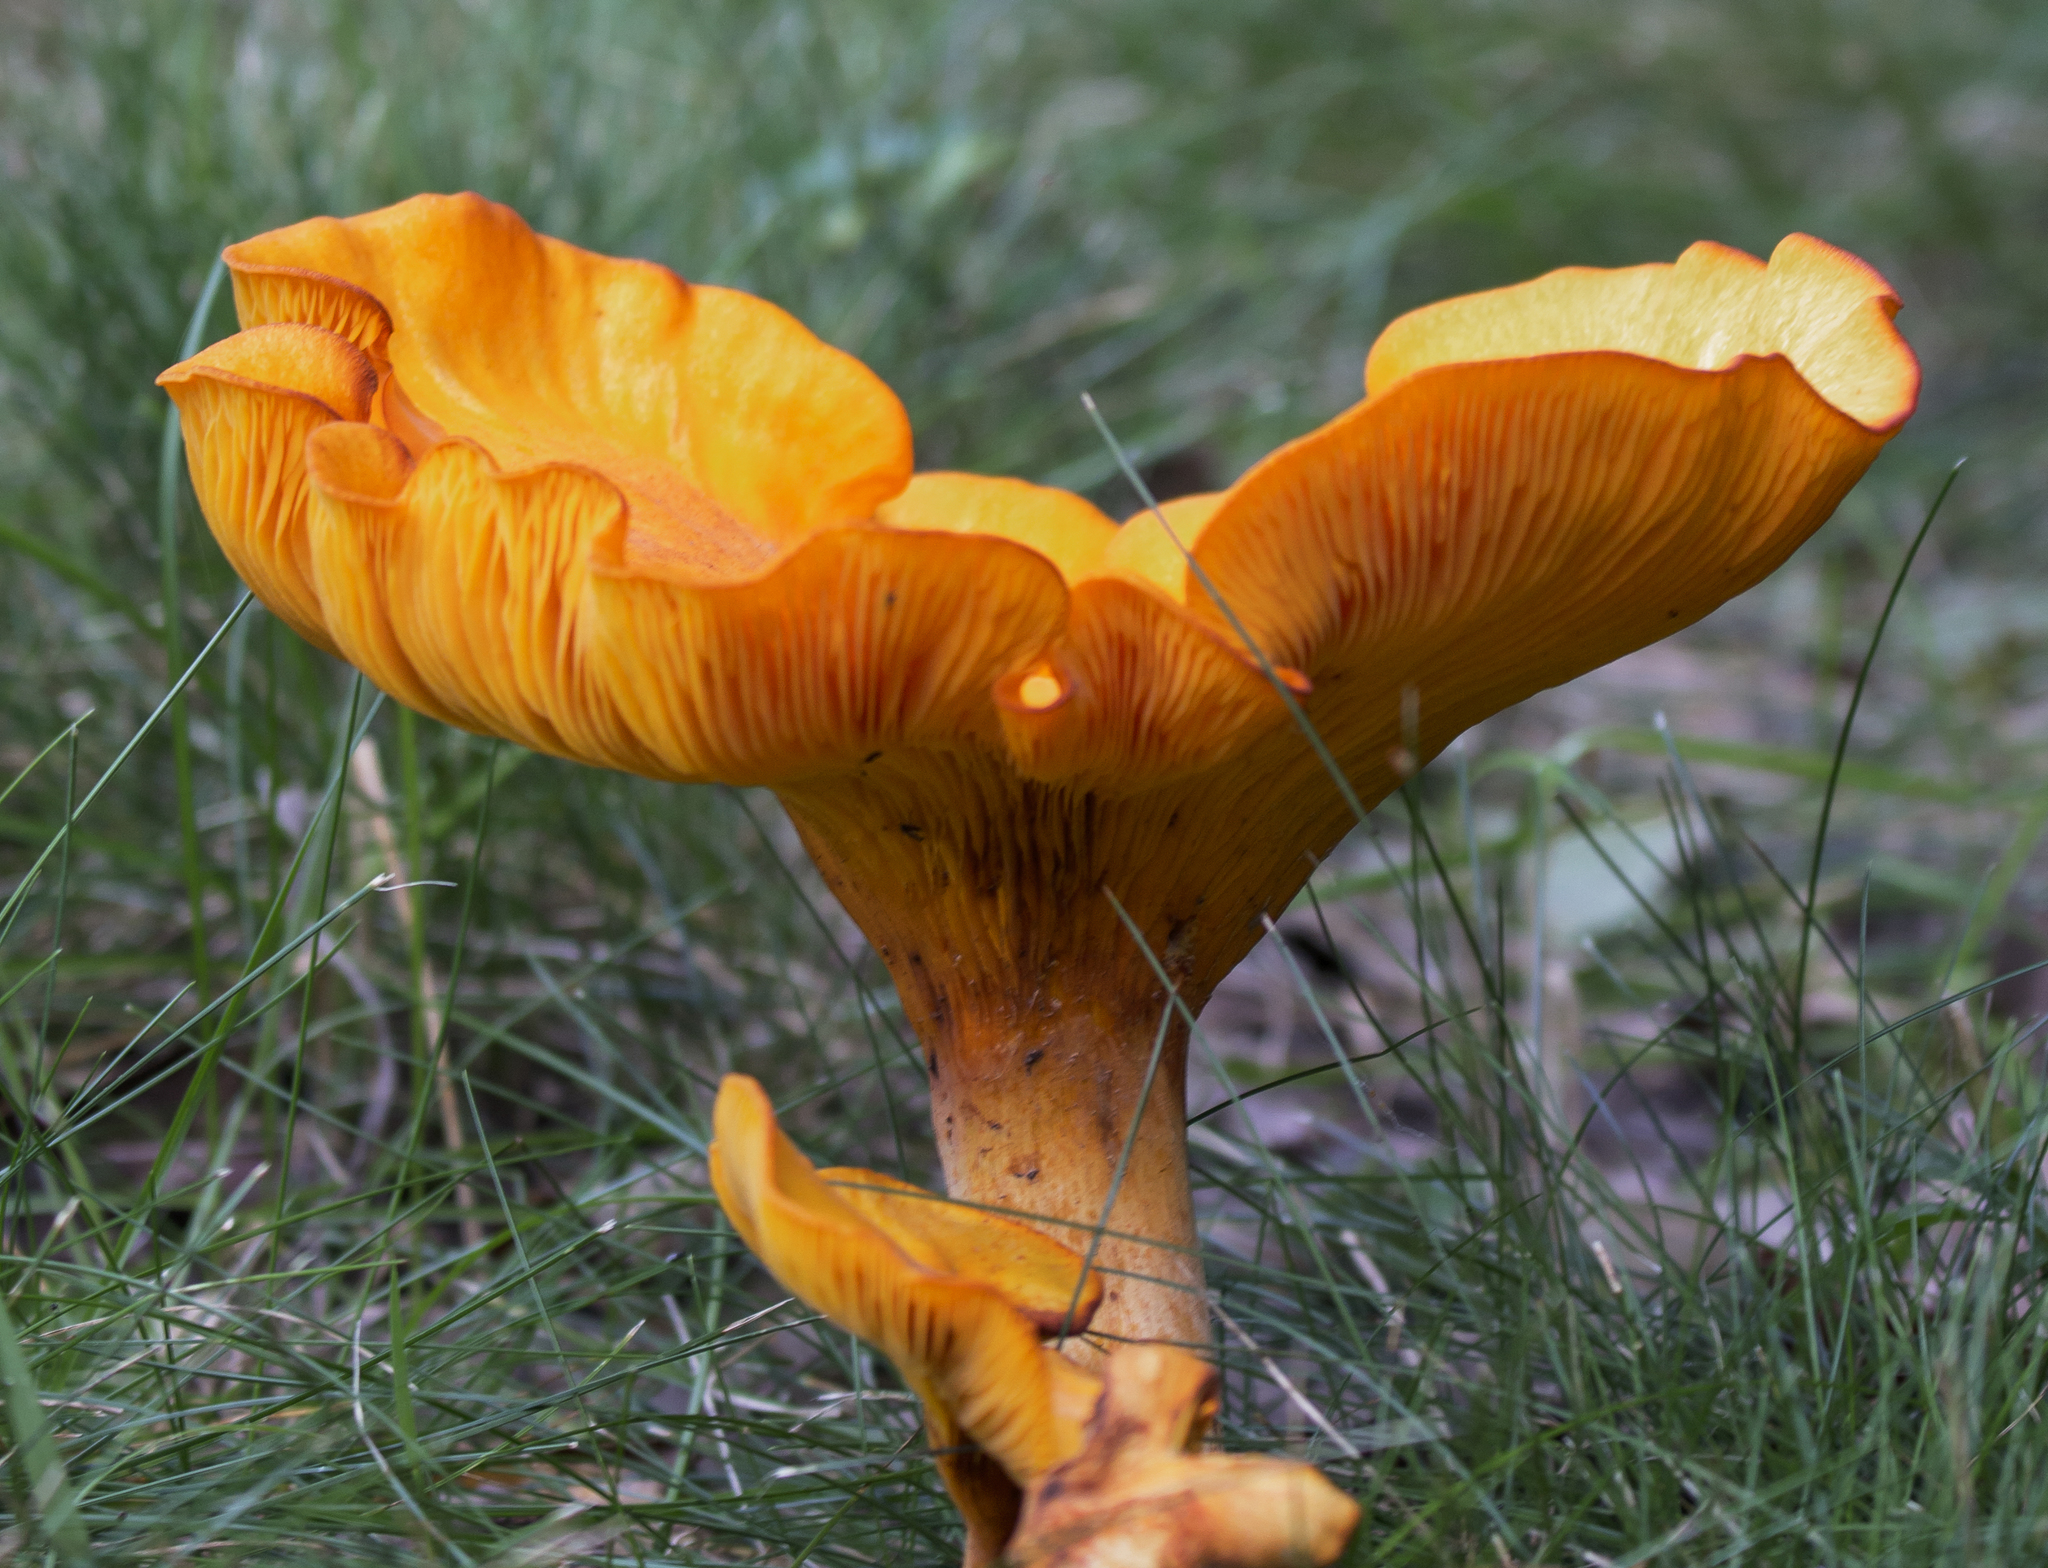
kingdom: Fungi
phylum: Basidiomycota
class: Agaricomycetes
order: Agaricales
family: Omphalotaceae
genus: Omphalotus
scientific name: Omphalotus illudens
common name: Jack o lantern
